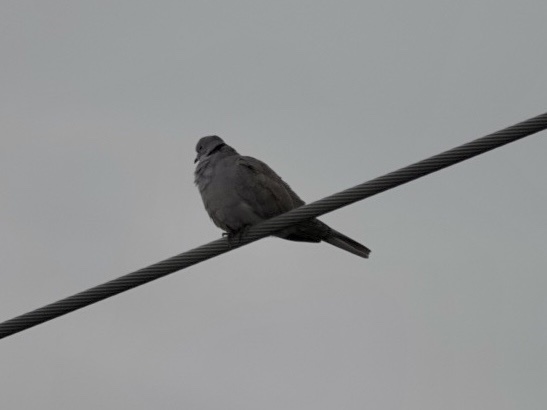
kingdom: Animalia
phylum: Chordata
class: Aves
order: Columbiformes
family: Columbidae
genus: Streptopelia
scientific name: Streptopelia decaocto
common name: Eurasian collared dove
